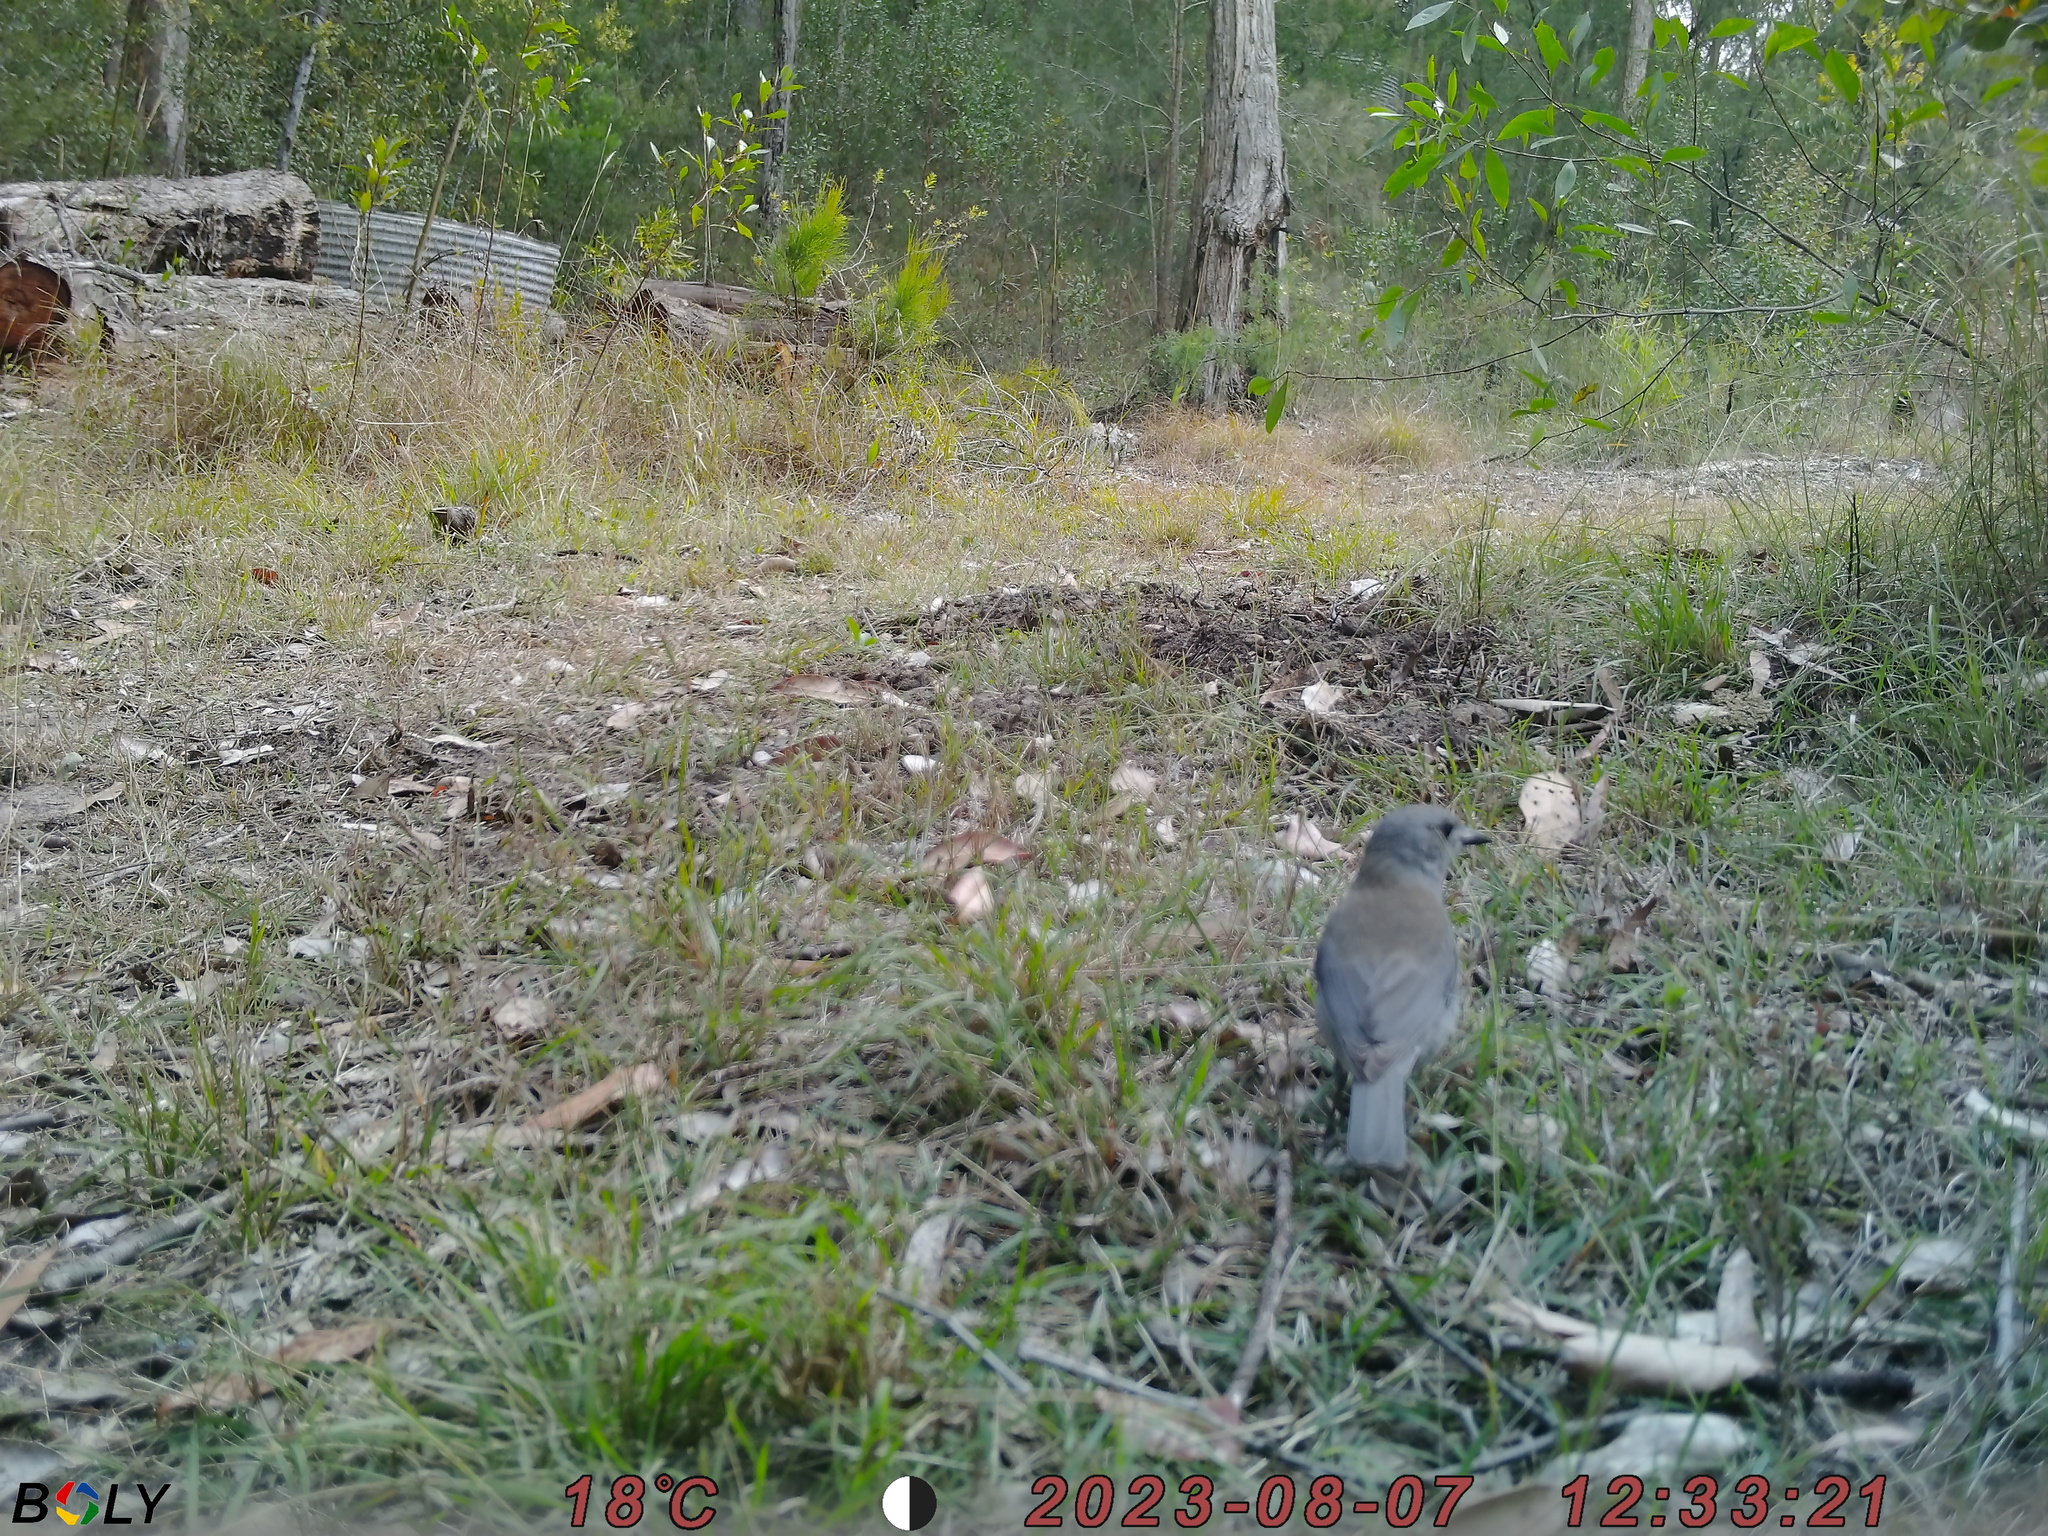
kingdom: Animalia
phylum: Chordata
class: Aves
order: Passeriformes
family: Pachycephalidae
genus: Colluricincla
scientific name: Colluricincla harmonica
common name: Grey shrikethrush
